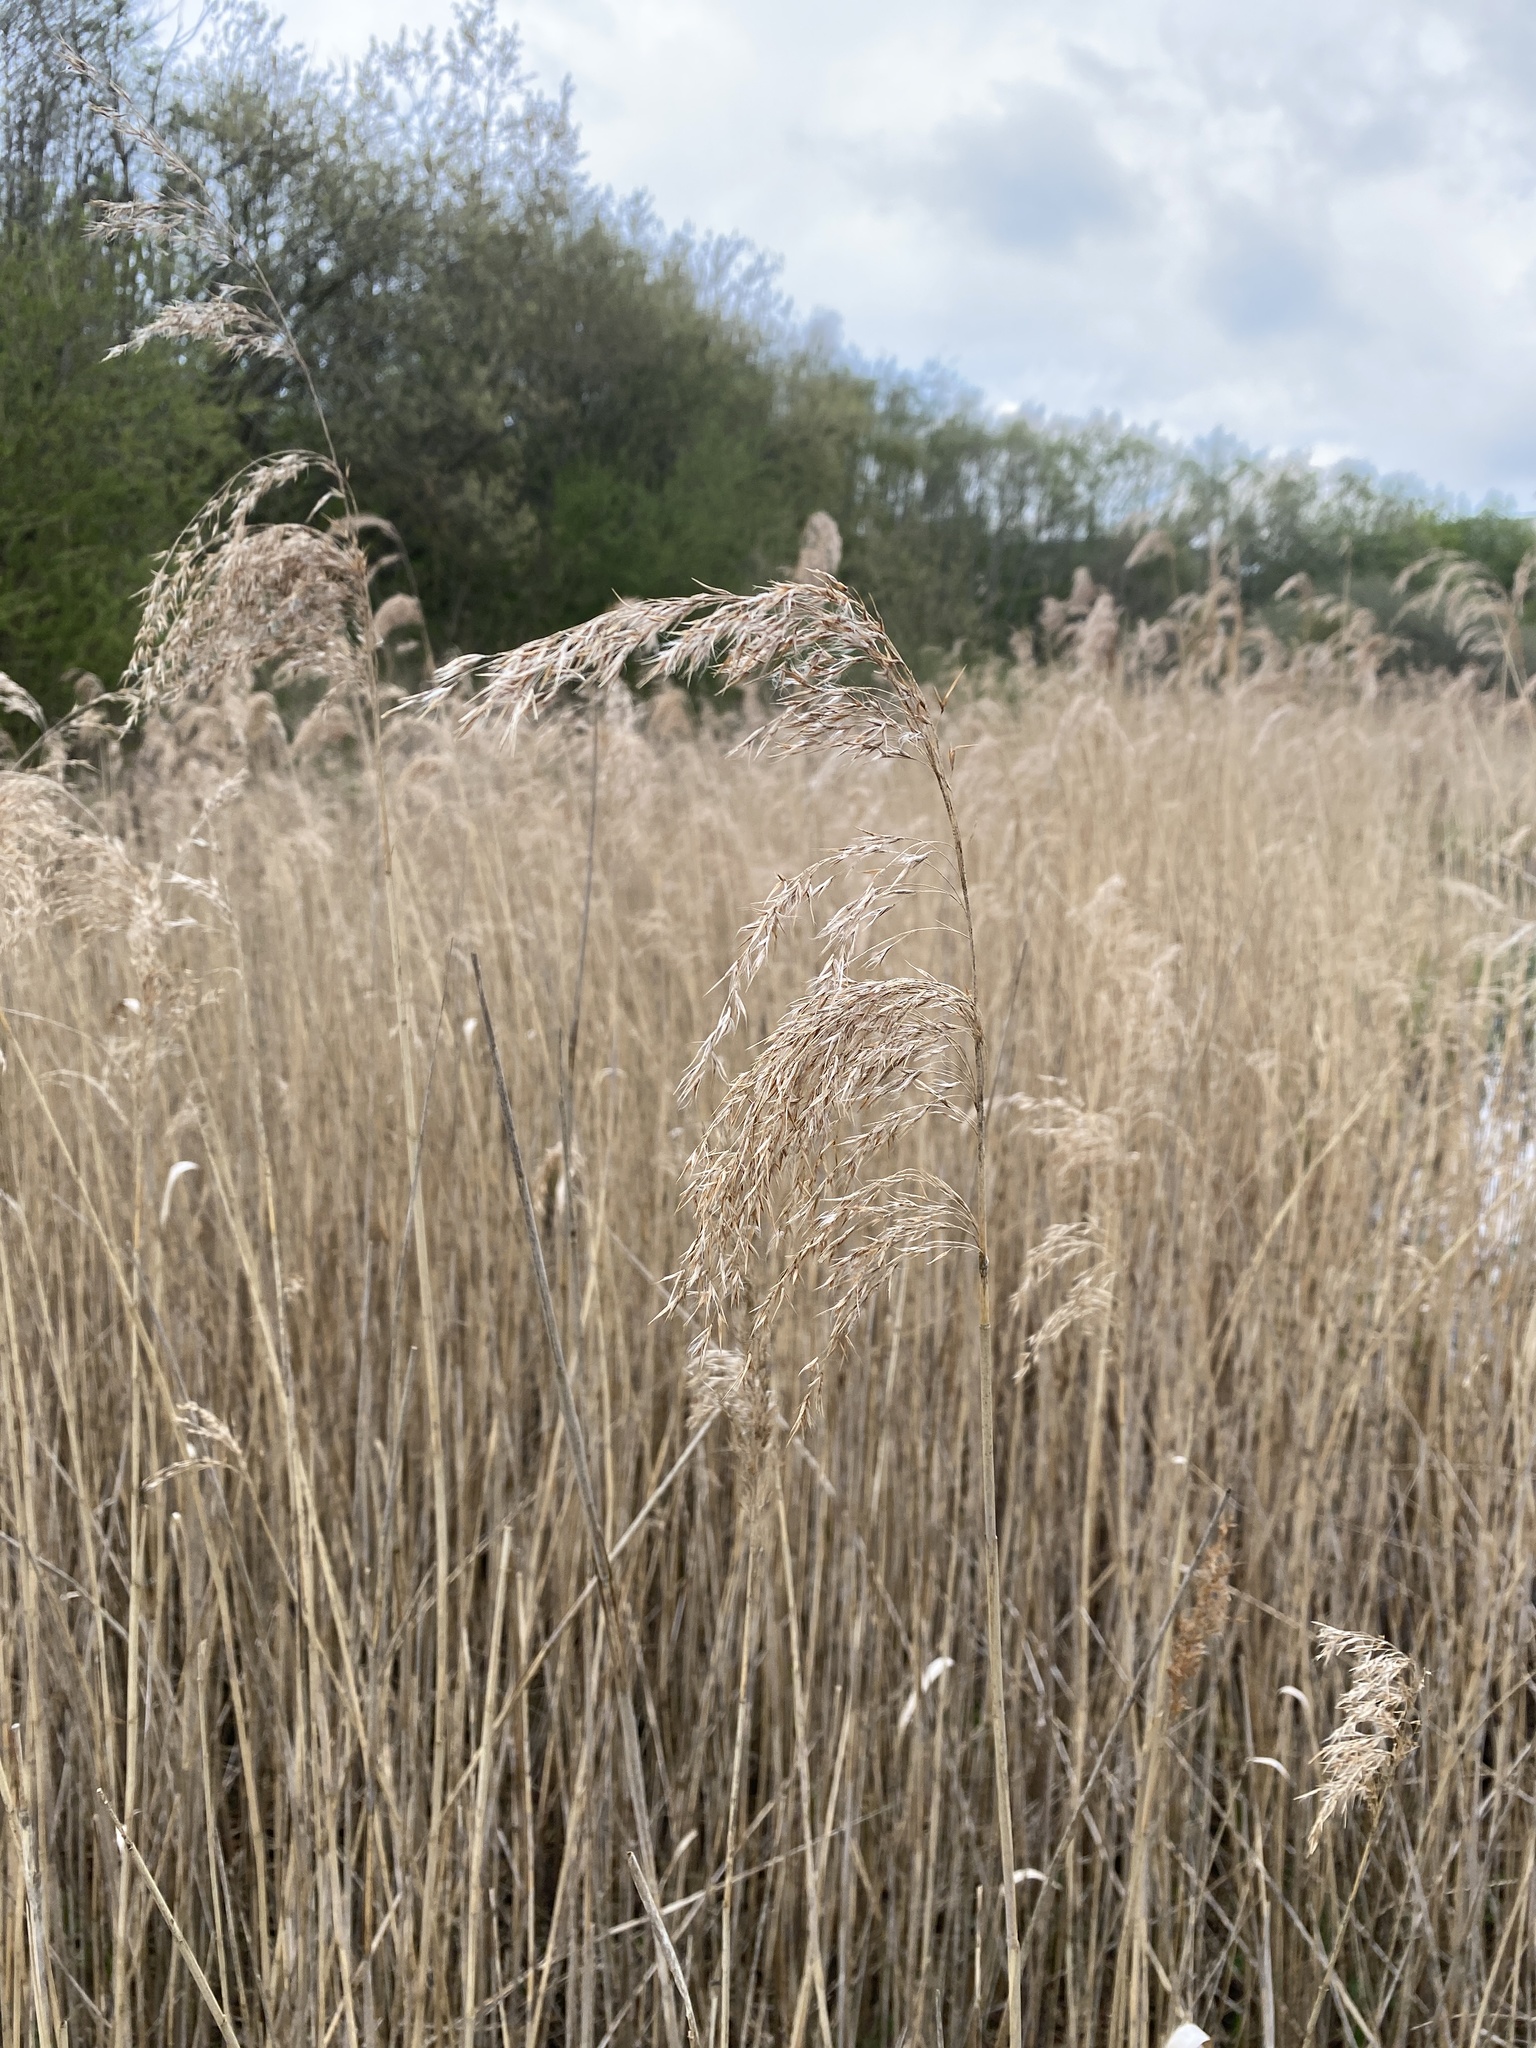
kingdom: Plantae
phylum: Tracheophyta
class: Liliopsida
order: Poales
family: Poaceae
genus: Phragmites
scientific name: Phragmites australis
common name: Common reed
